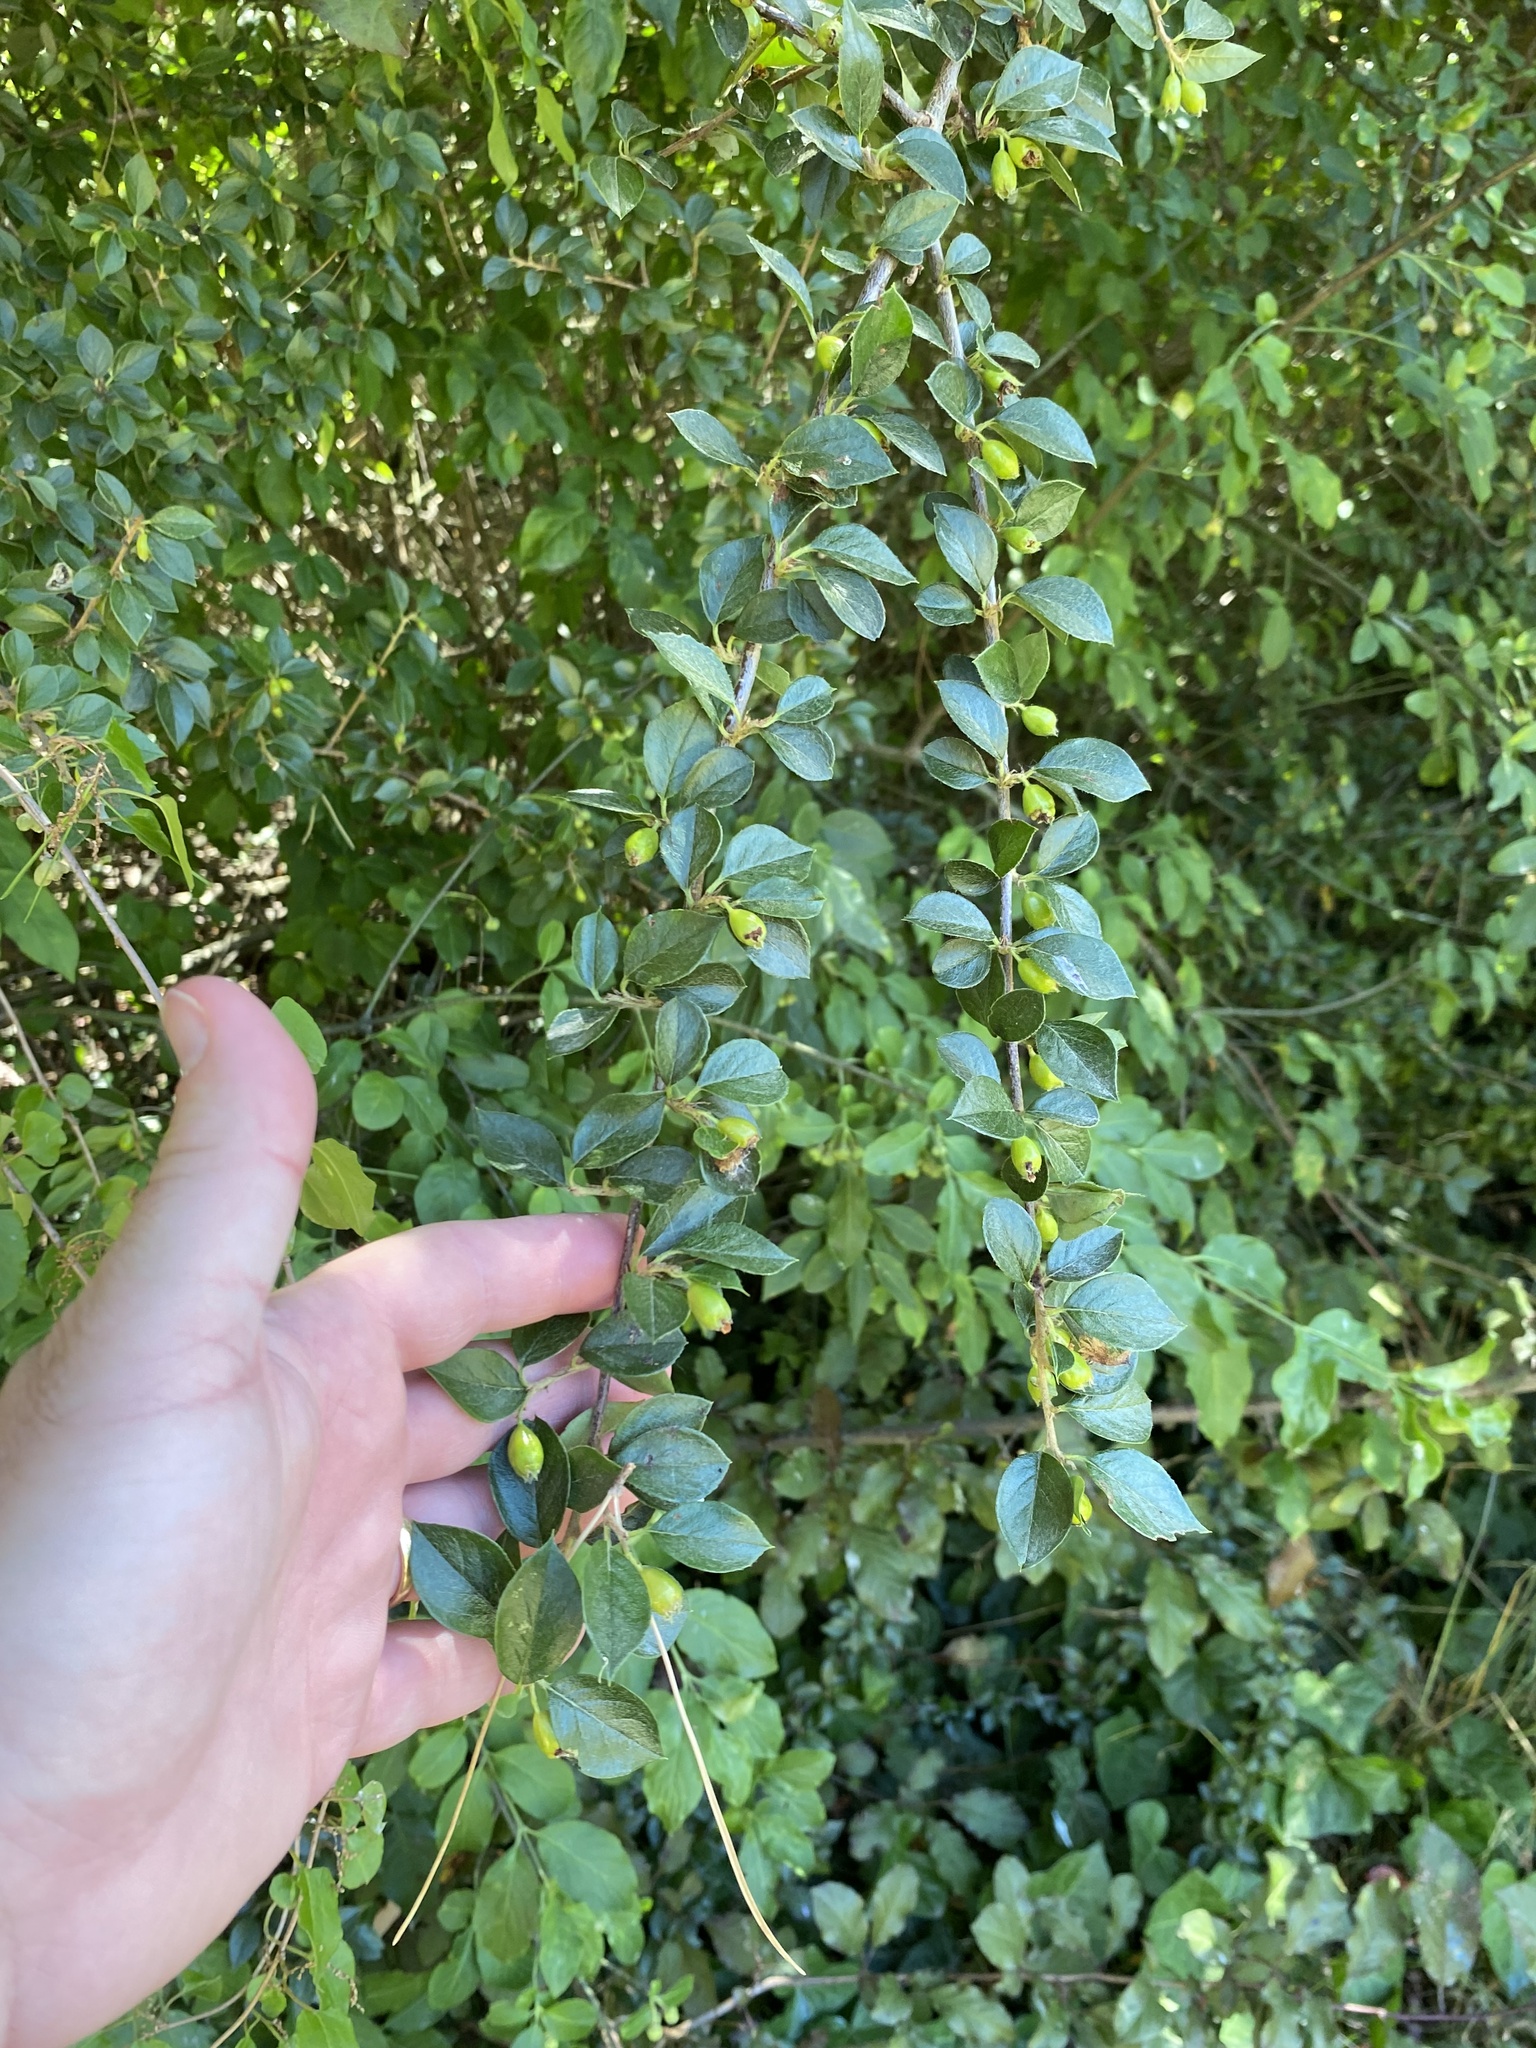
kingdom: Plantae
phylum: Tracheophyta
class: Magnoliopsida
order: Rosales
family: Rosaceae
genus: Cotoneaster
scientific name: Cotoneaster simonsii
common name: Himalayan cotoneaster
